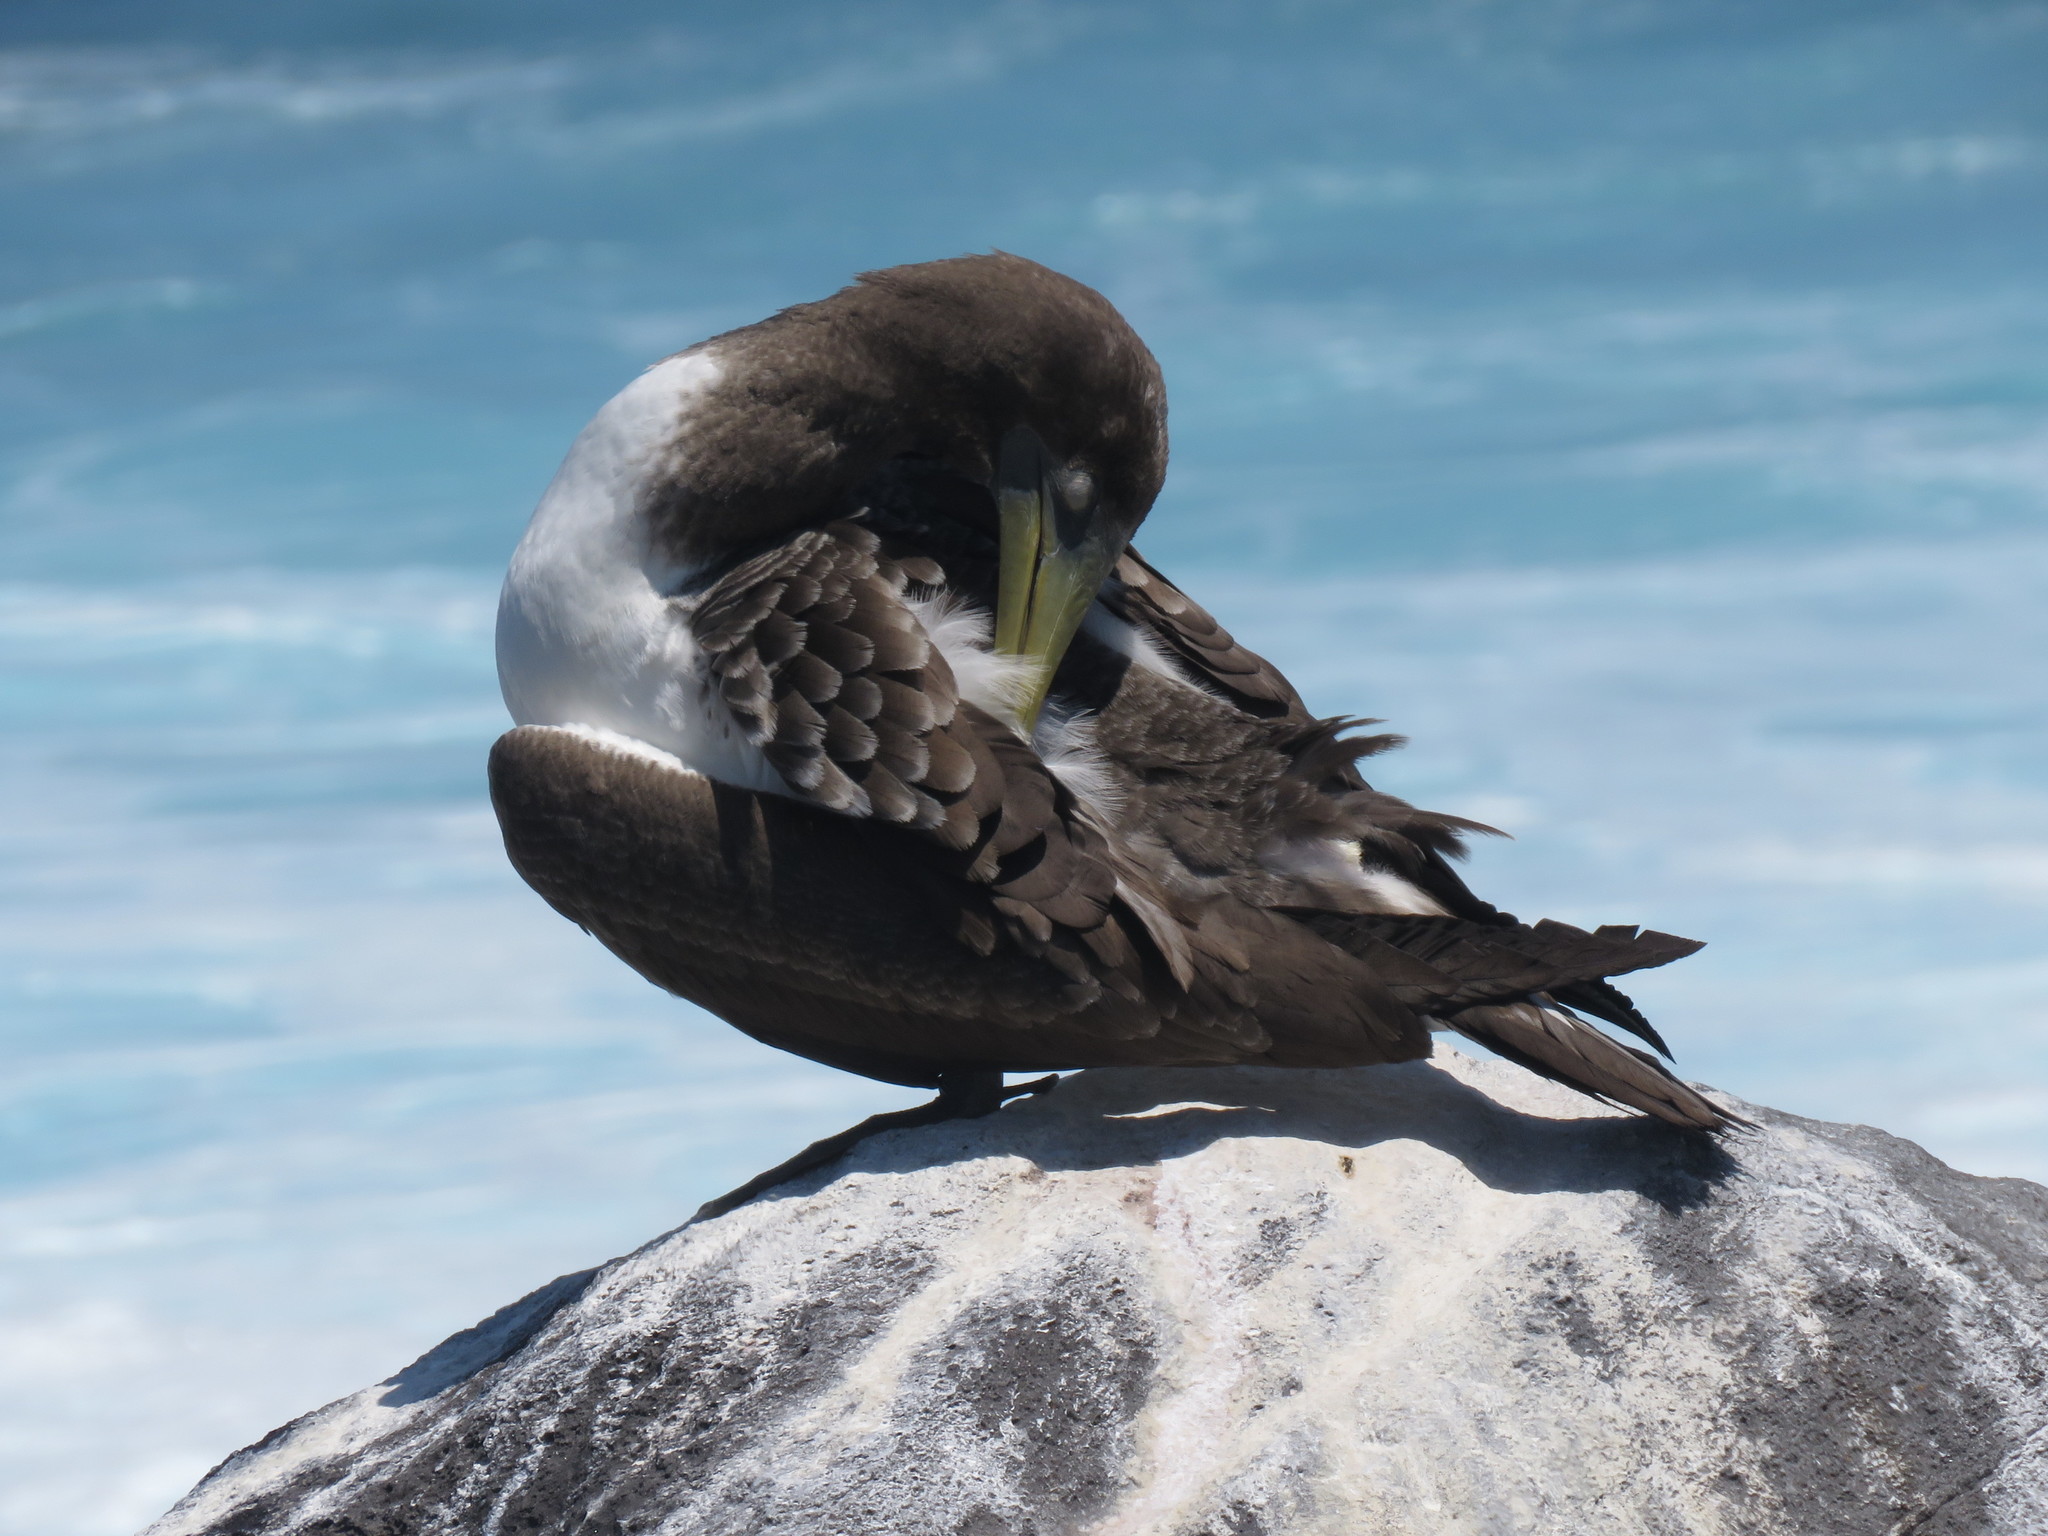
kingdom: Animalia
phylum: Chordata
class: Aves
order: Suliformes
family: Sulidae
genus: Sula
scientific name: Sula granti
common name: Nazca booby
